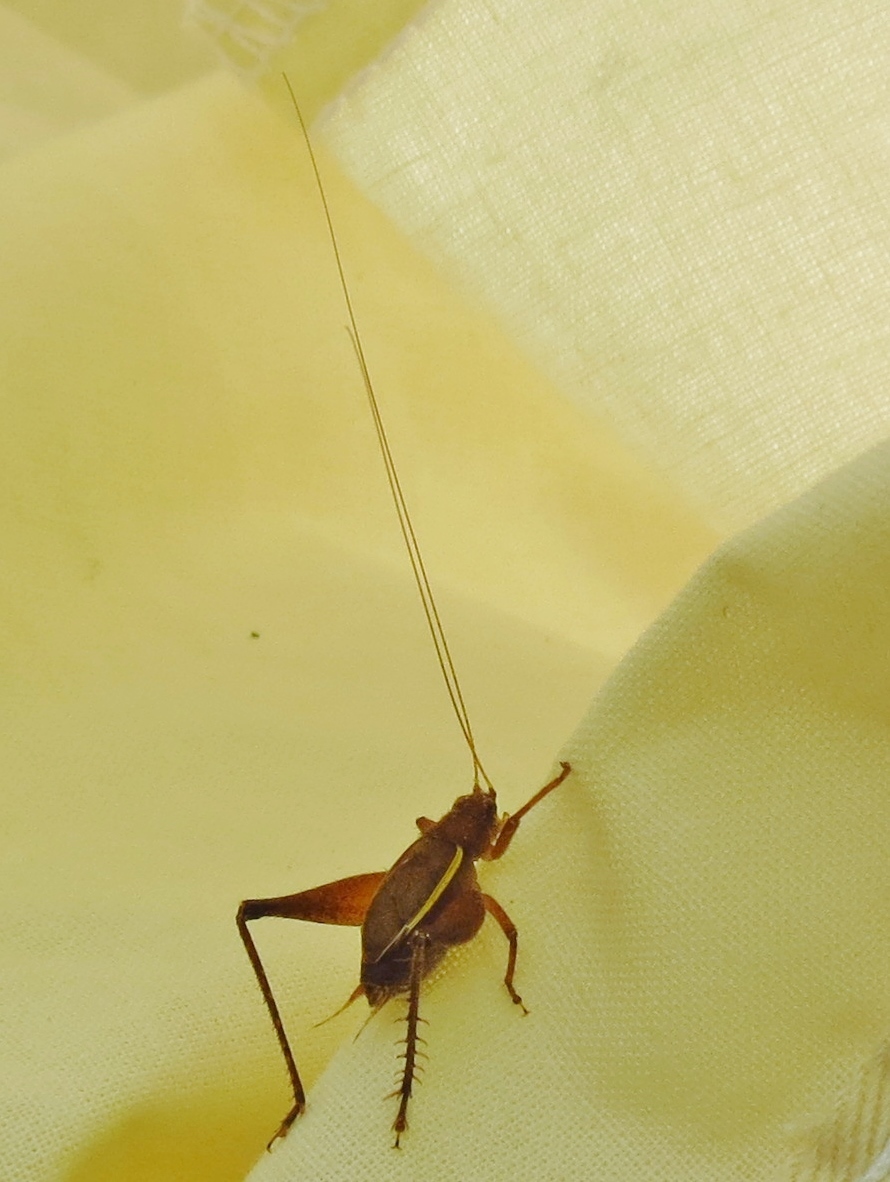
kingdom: Animalia
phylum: Arthropoda
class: Insecta
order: Orthoptera
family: Gryllidae
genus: Hapithus
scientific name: Hapithus agitator
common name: Restless bush cricket
